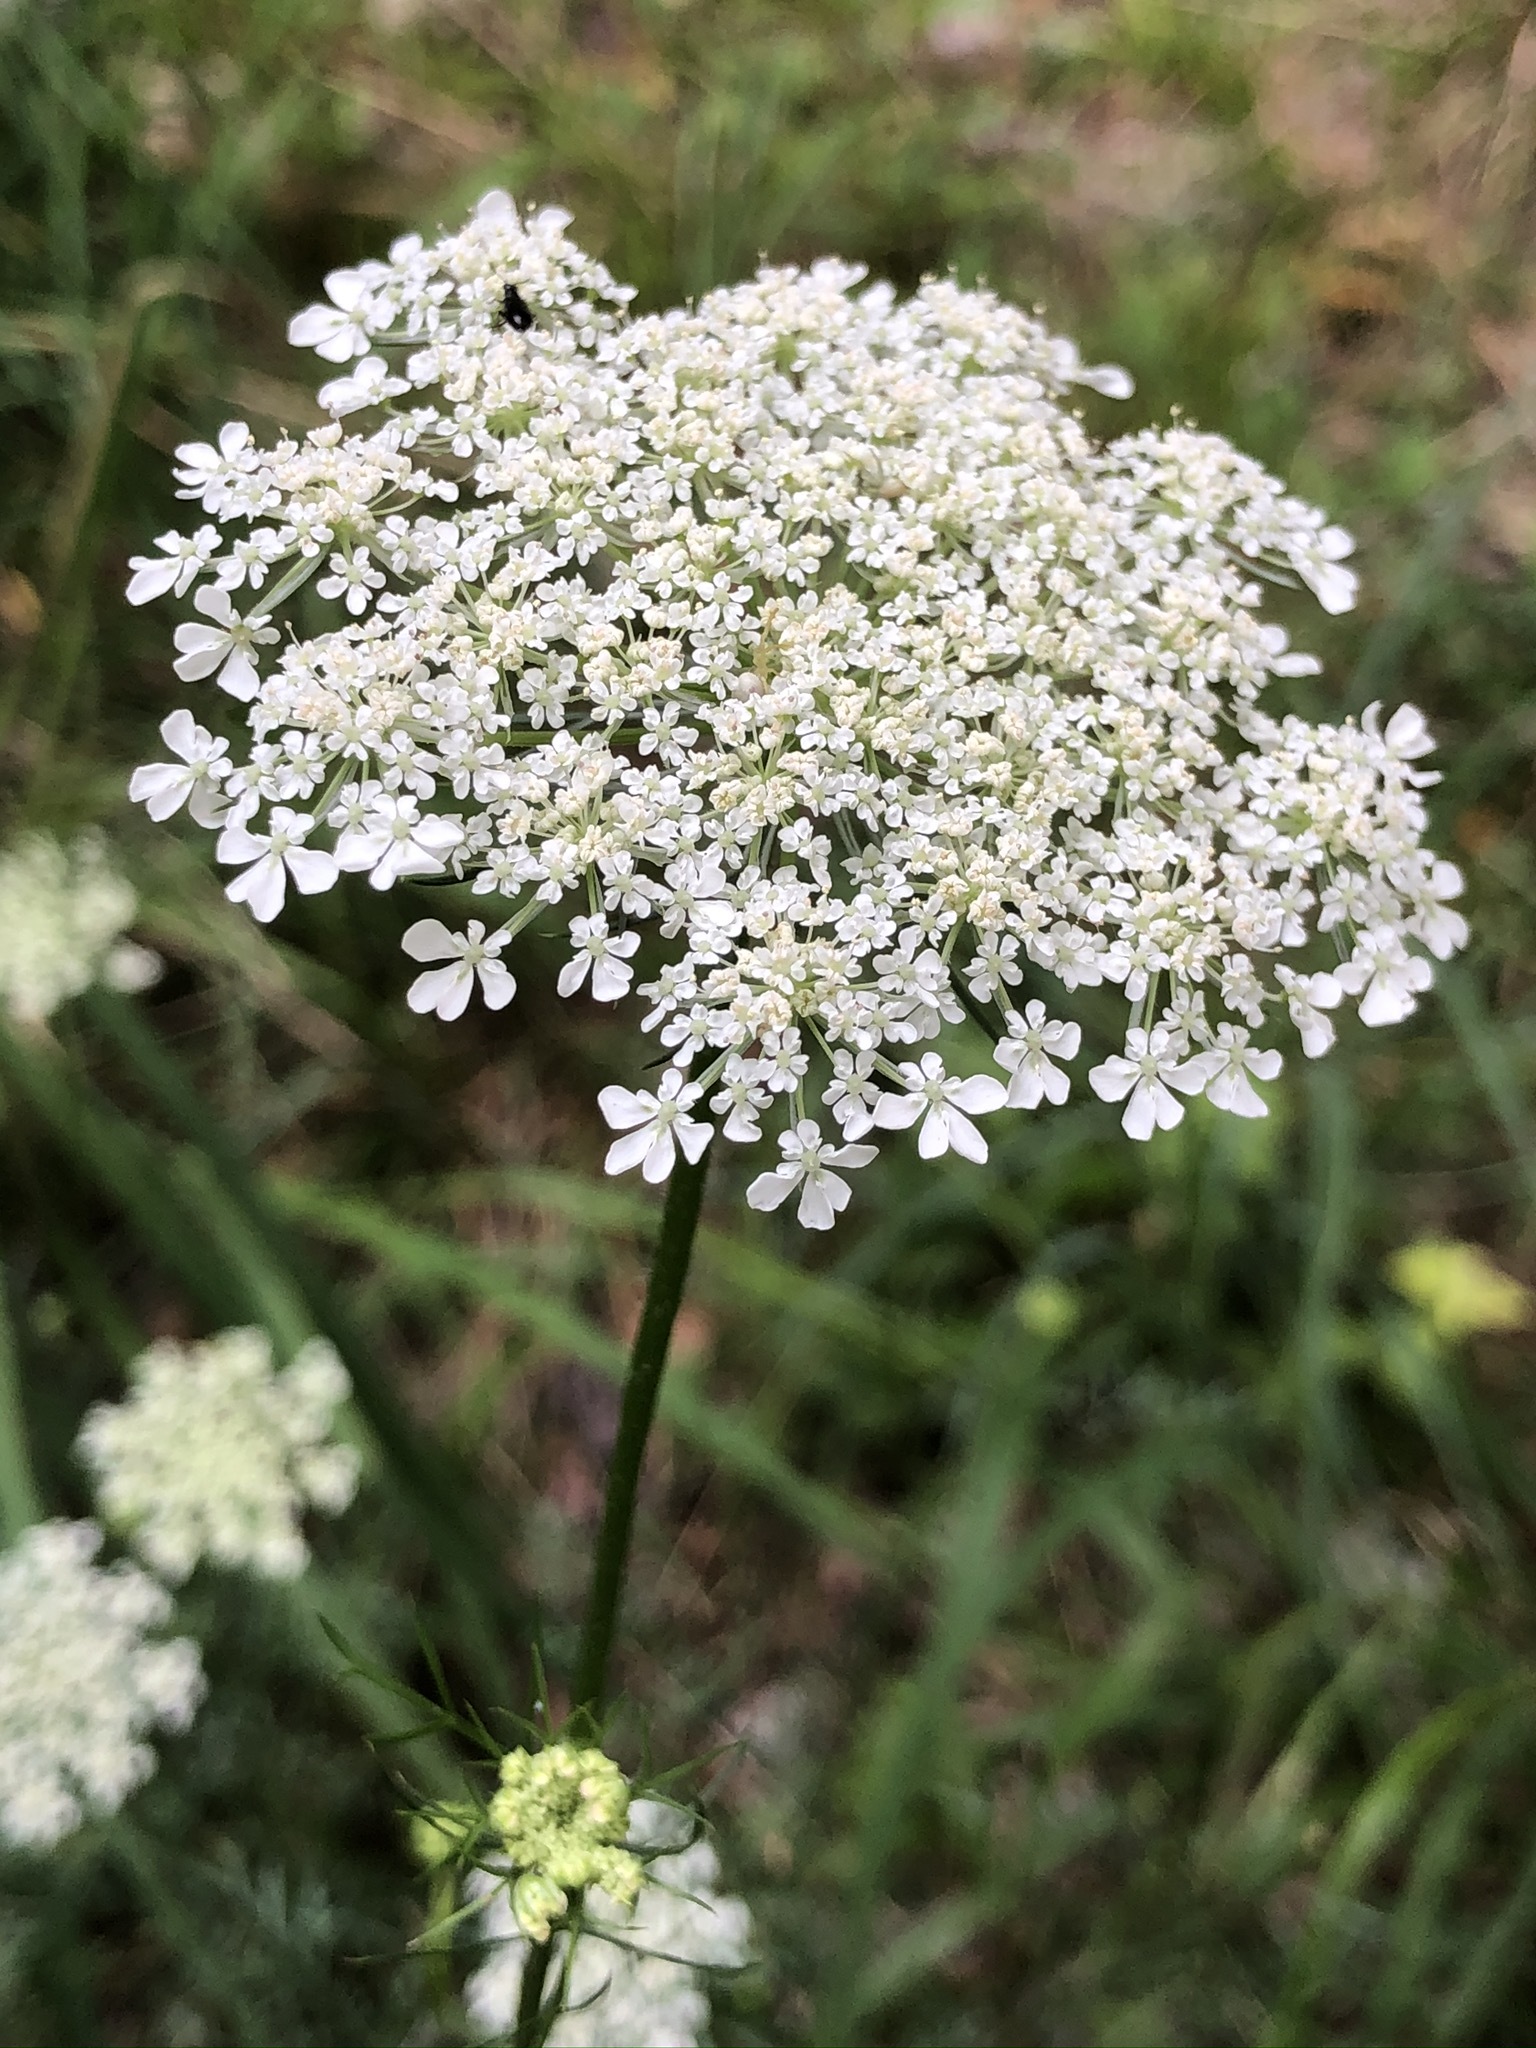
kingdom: Plantae
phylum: Tracheophyta
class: Magnoliopsida
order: Apiales
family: Apiaceae
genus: Daucus
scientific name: Daucus carota
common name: Wild carrot
